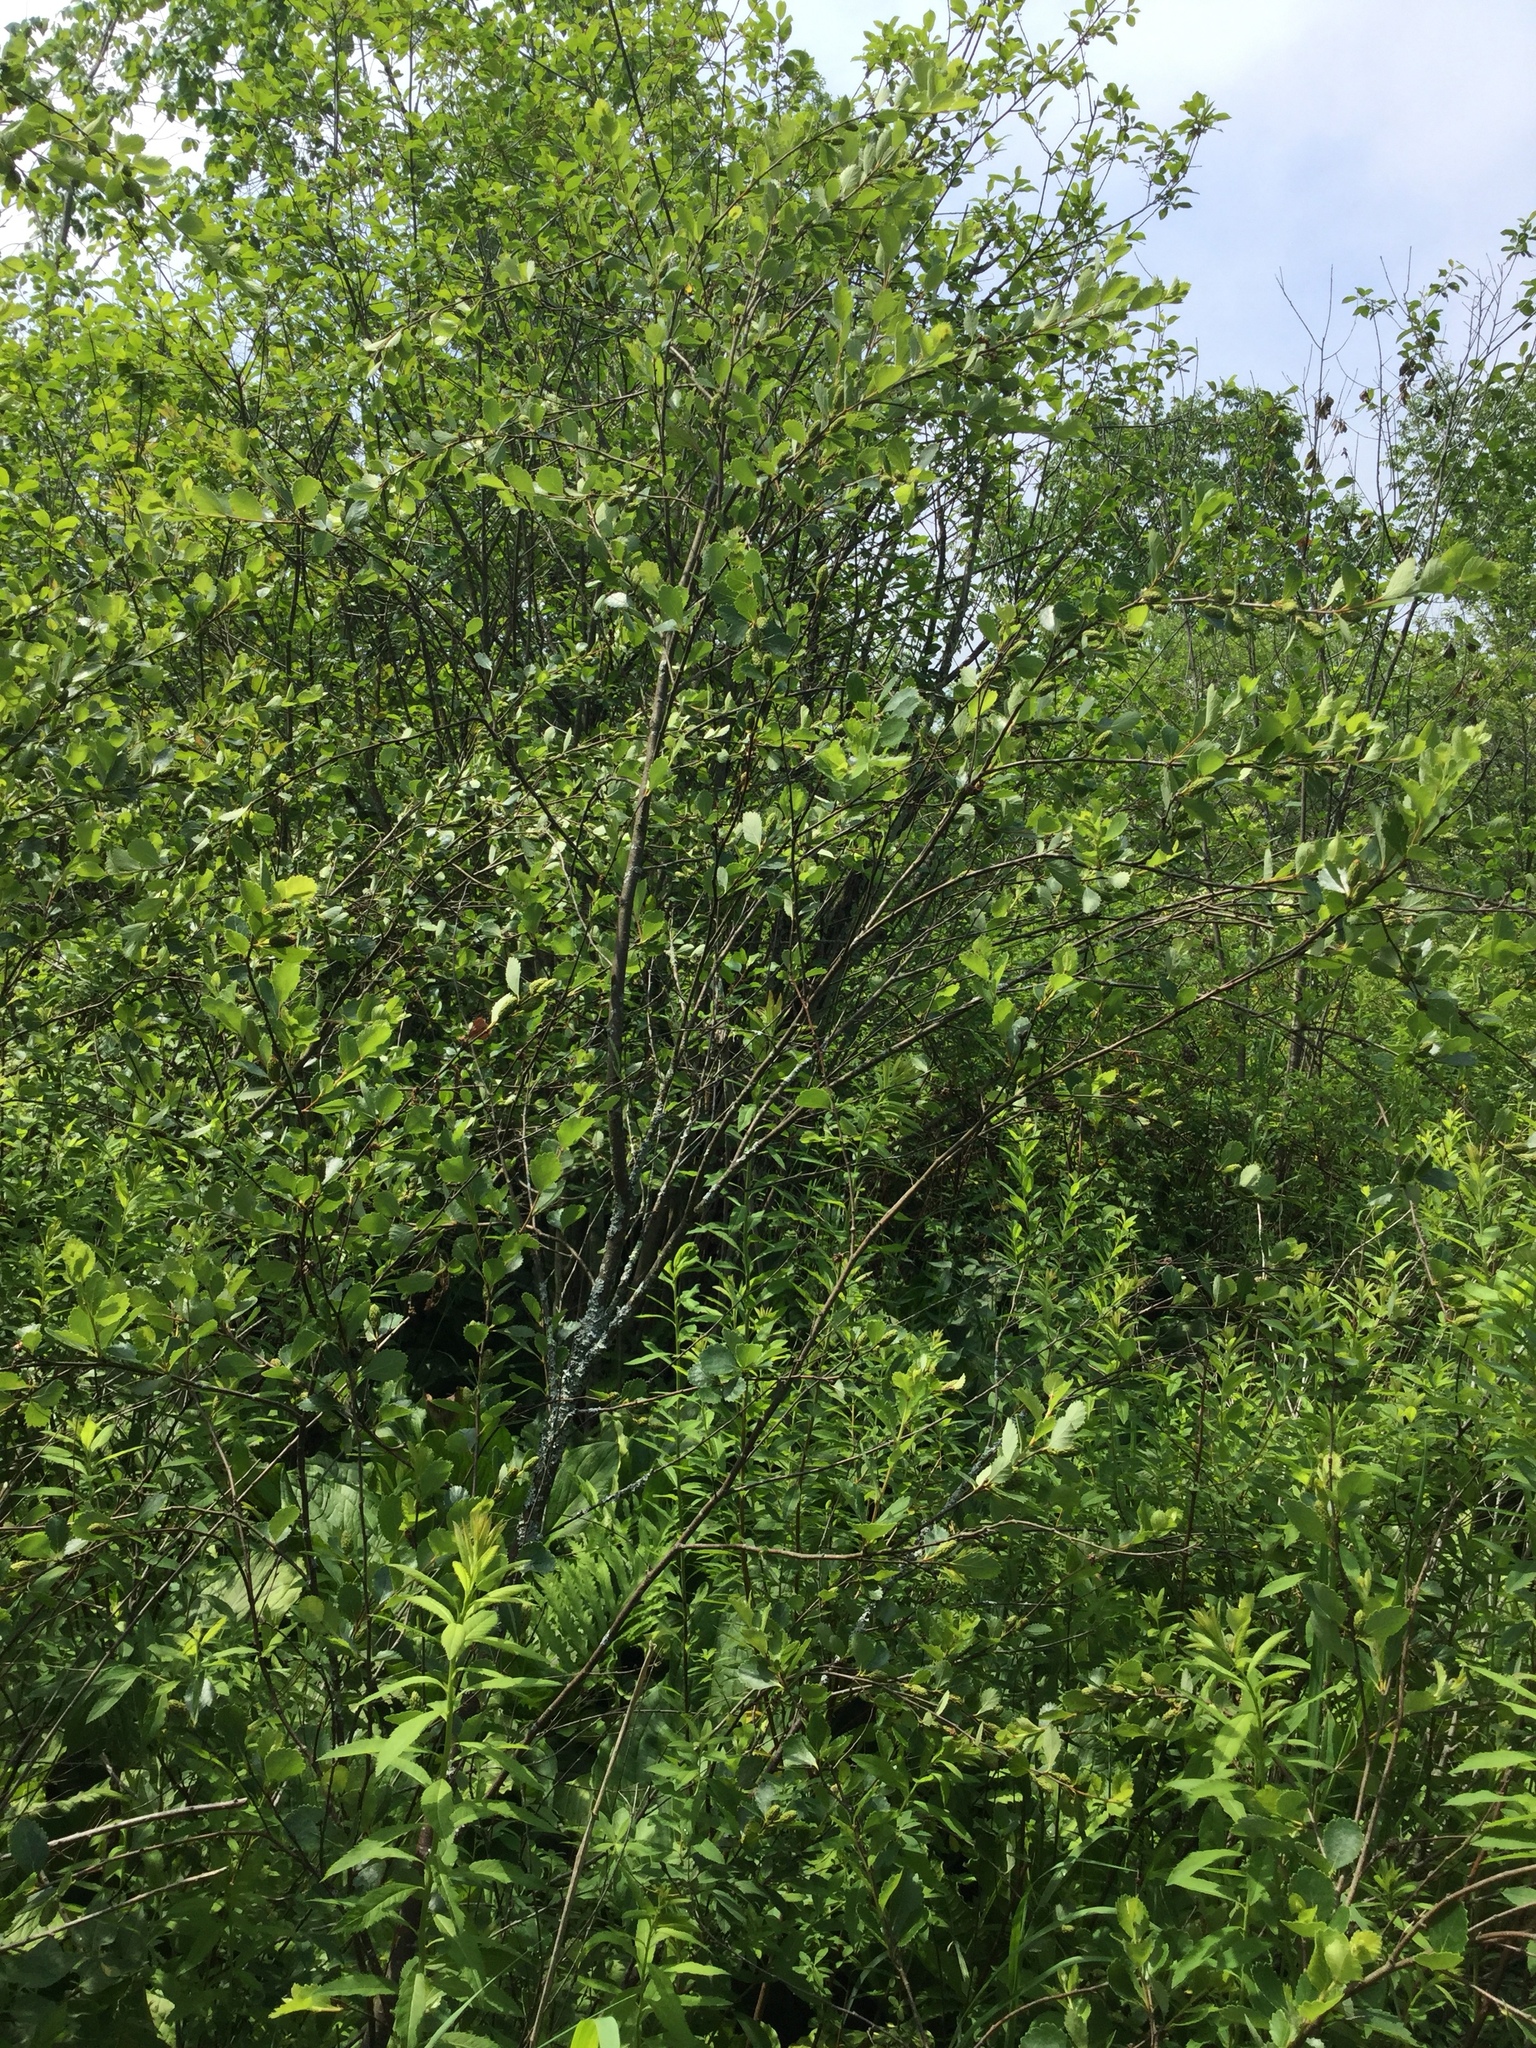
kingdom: Plantae
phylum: Tracheophyta
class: Magnoliopsida
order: Fagales
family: Betulaceae
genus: Betula
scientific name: Betula pumila
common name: Bog birch
